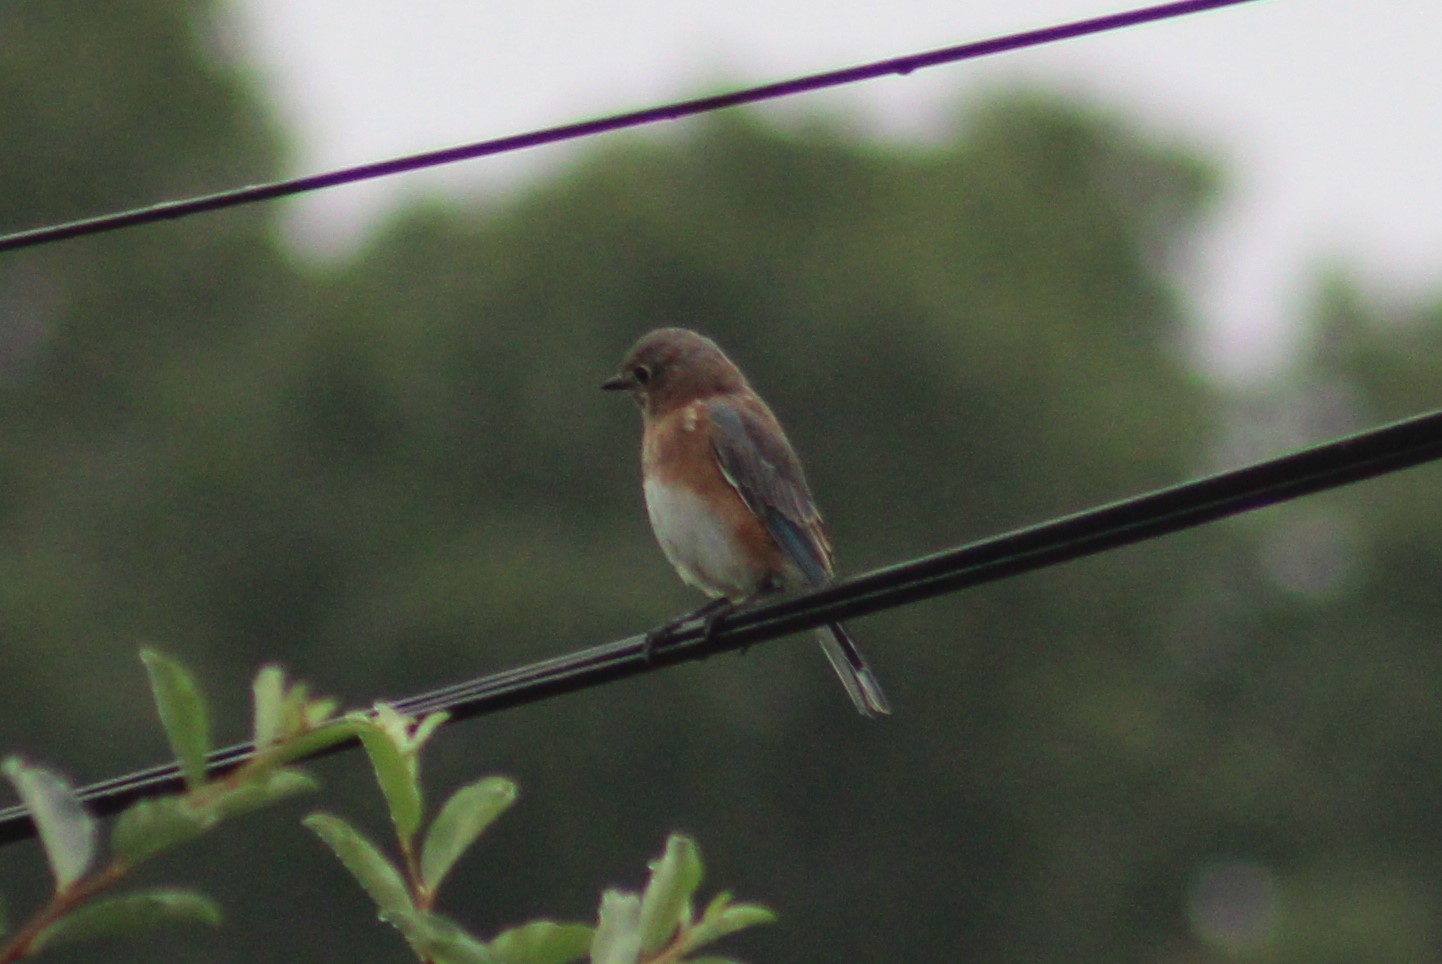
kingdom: Animalia
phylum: Chordata
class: Aves
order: Passeriformes
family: Turdidae
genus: Sialia
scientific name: Sialia sialis
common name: Eastern bluebird
